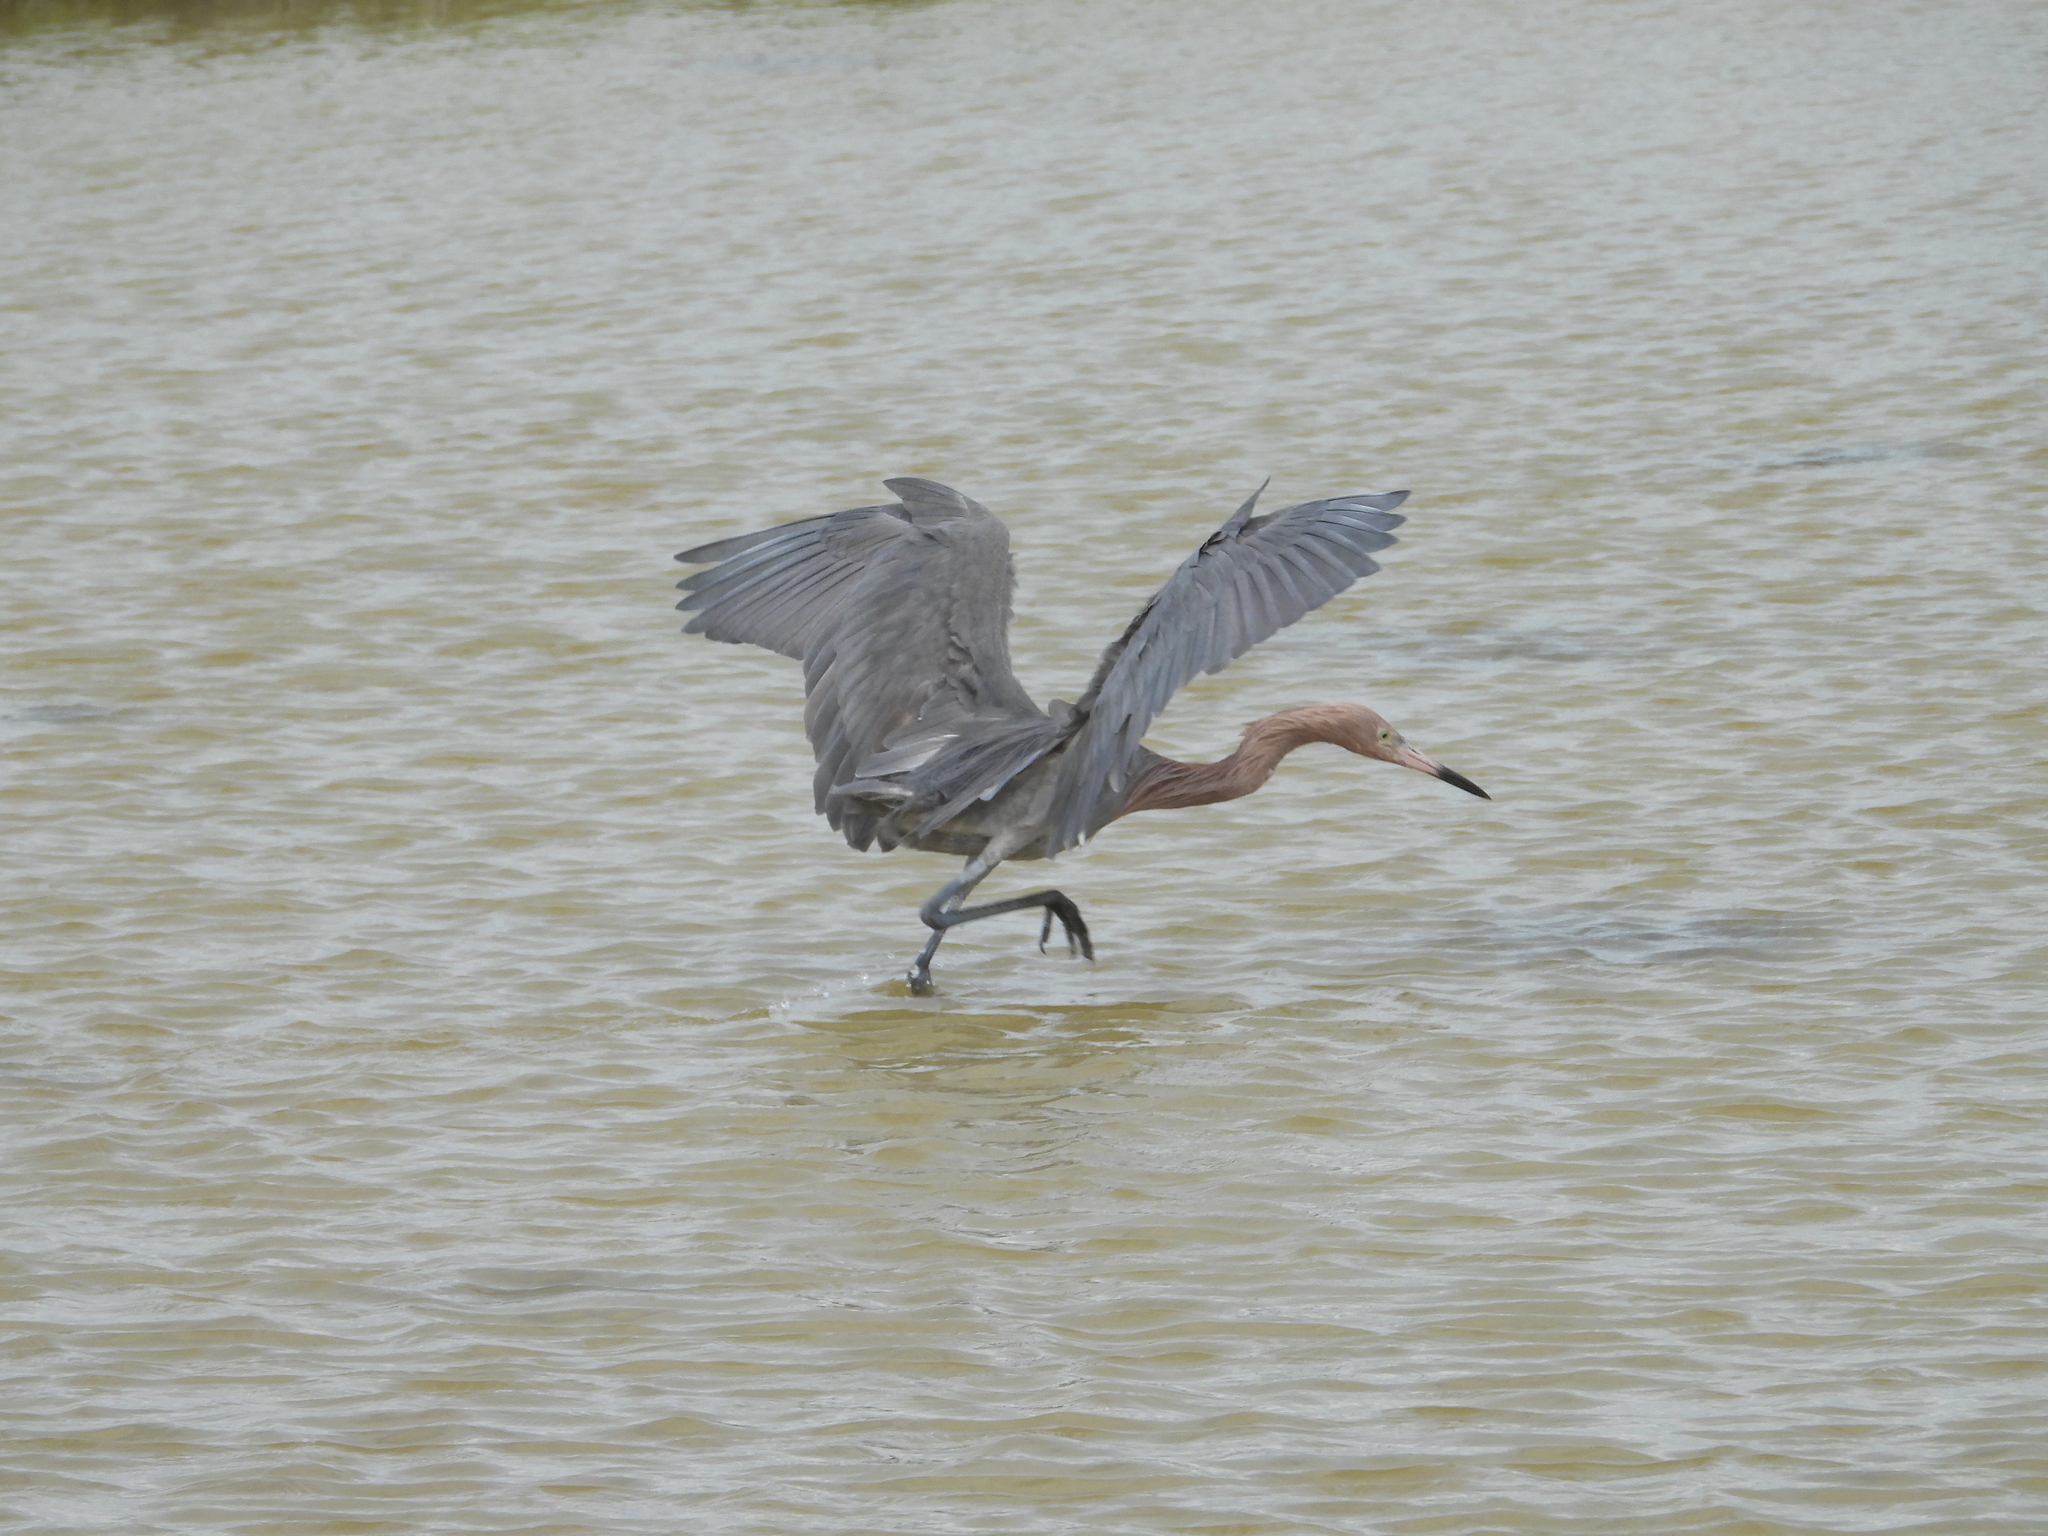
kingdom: Animalia
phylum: Chordata
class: Aves
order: Pelecaniformes
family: Ardeidae
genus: Egretta
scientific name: Egretta rufescens
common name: Reddish egret
